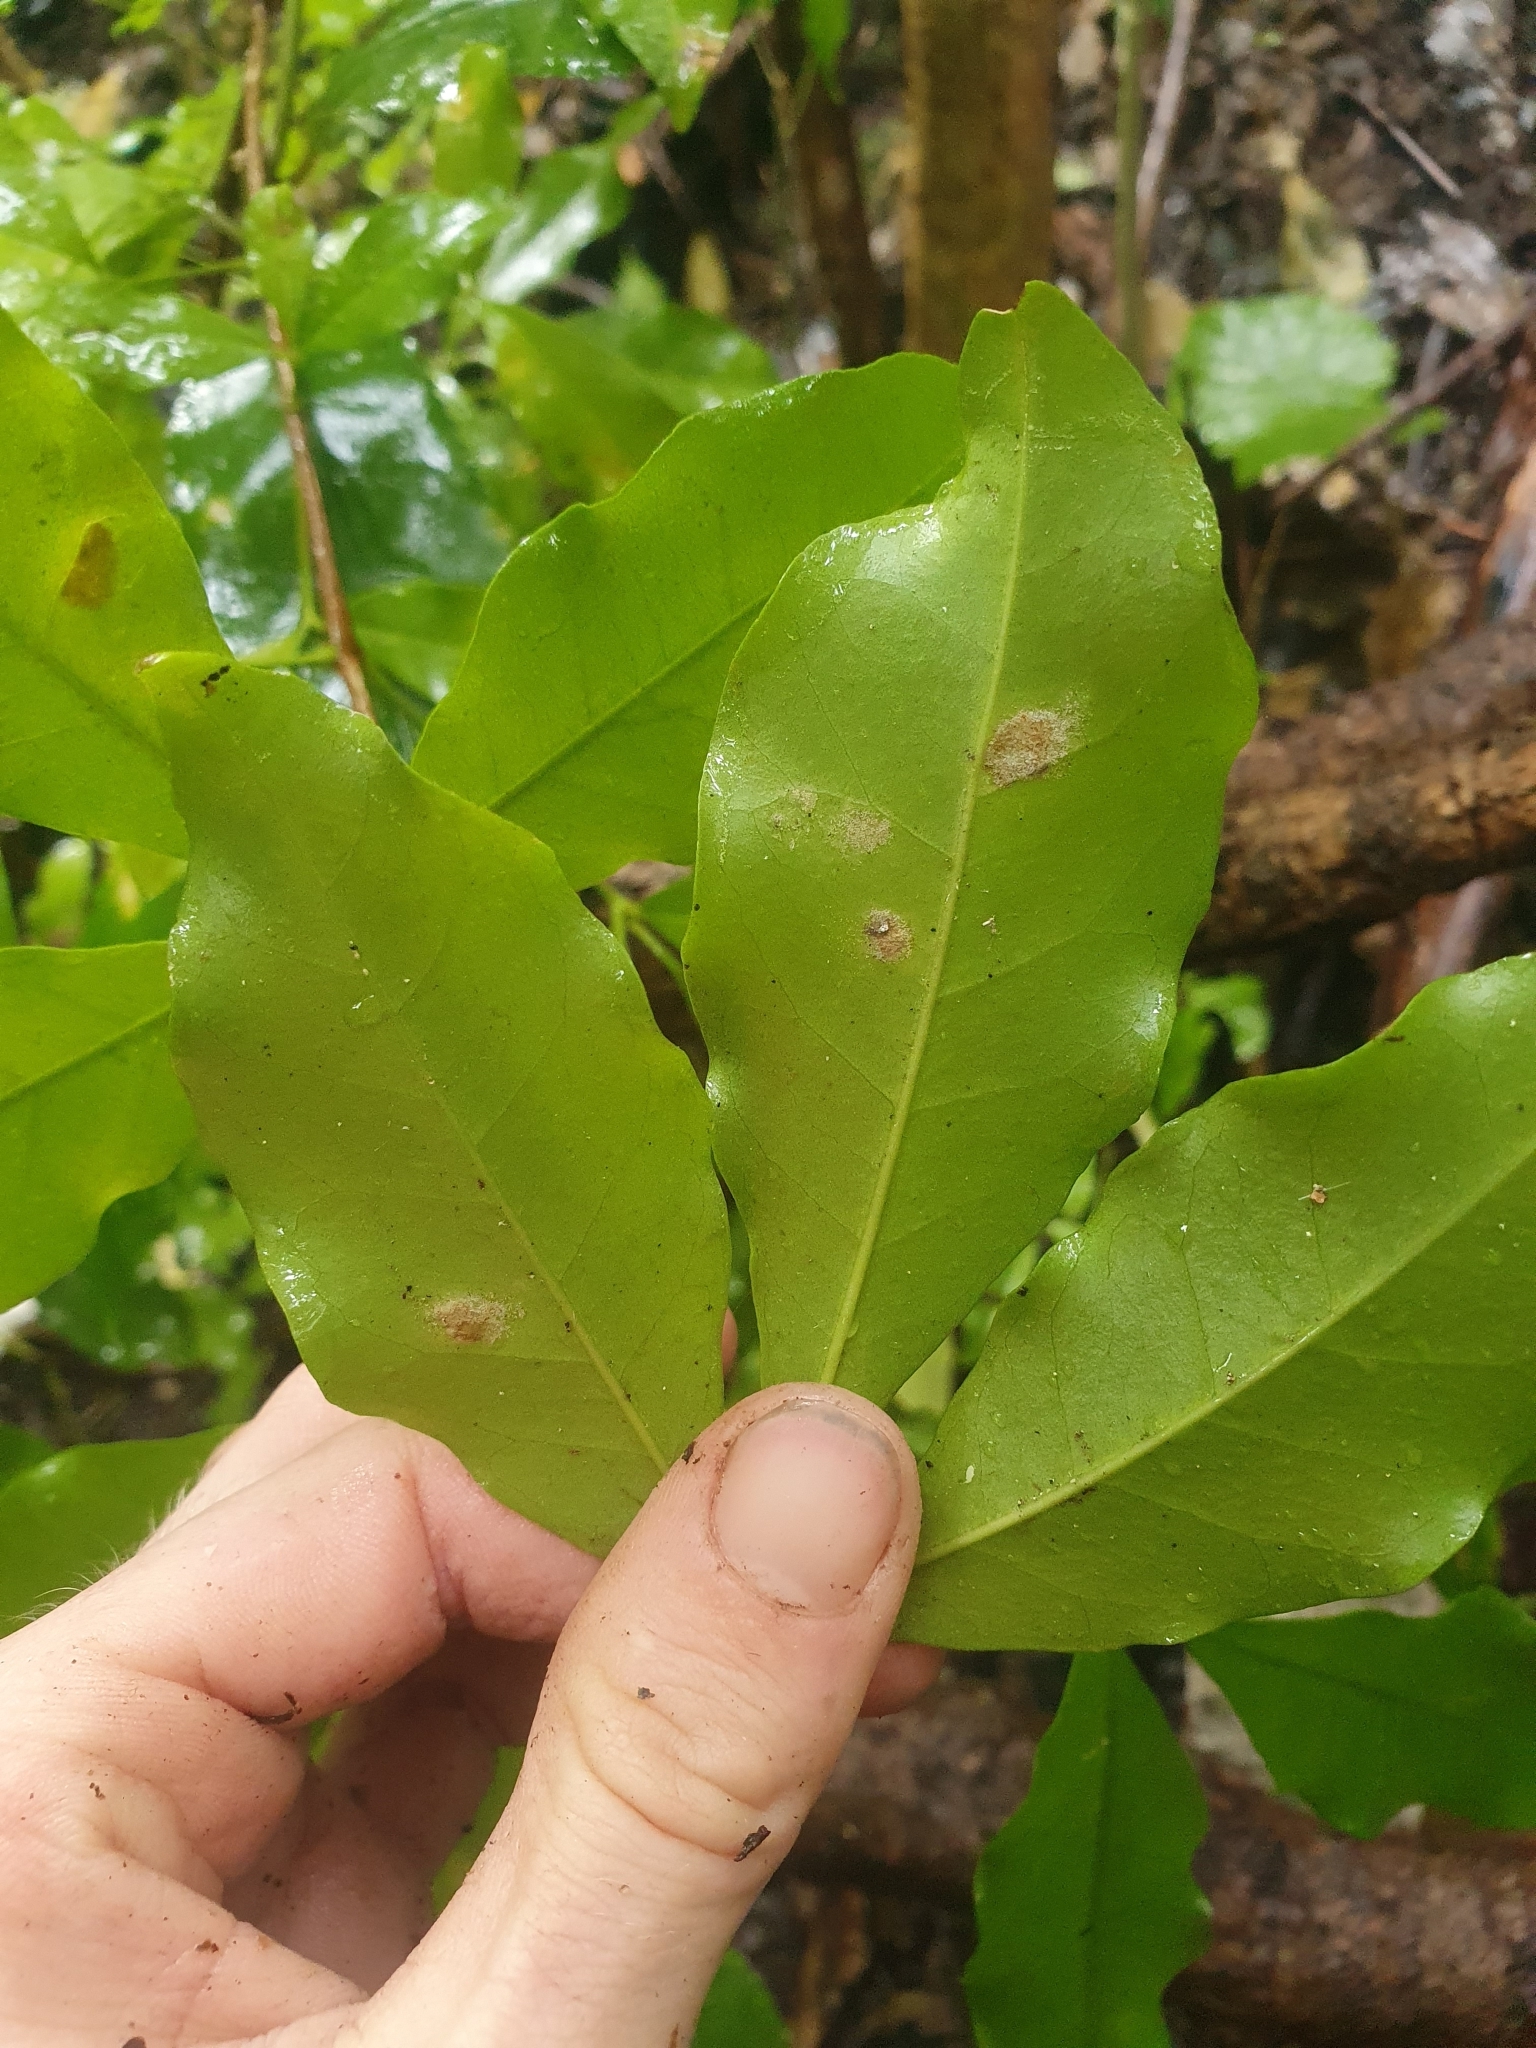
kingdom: Plantae
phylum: Tracheophyta
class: Magnoliopsida
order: Sapindales
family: Rutaceae
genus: Melicope
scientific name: Melicope ternata
